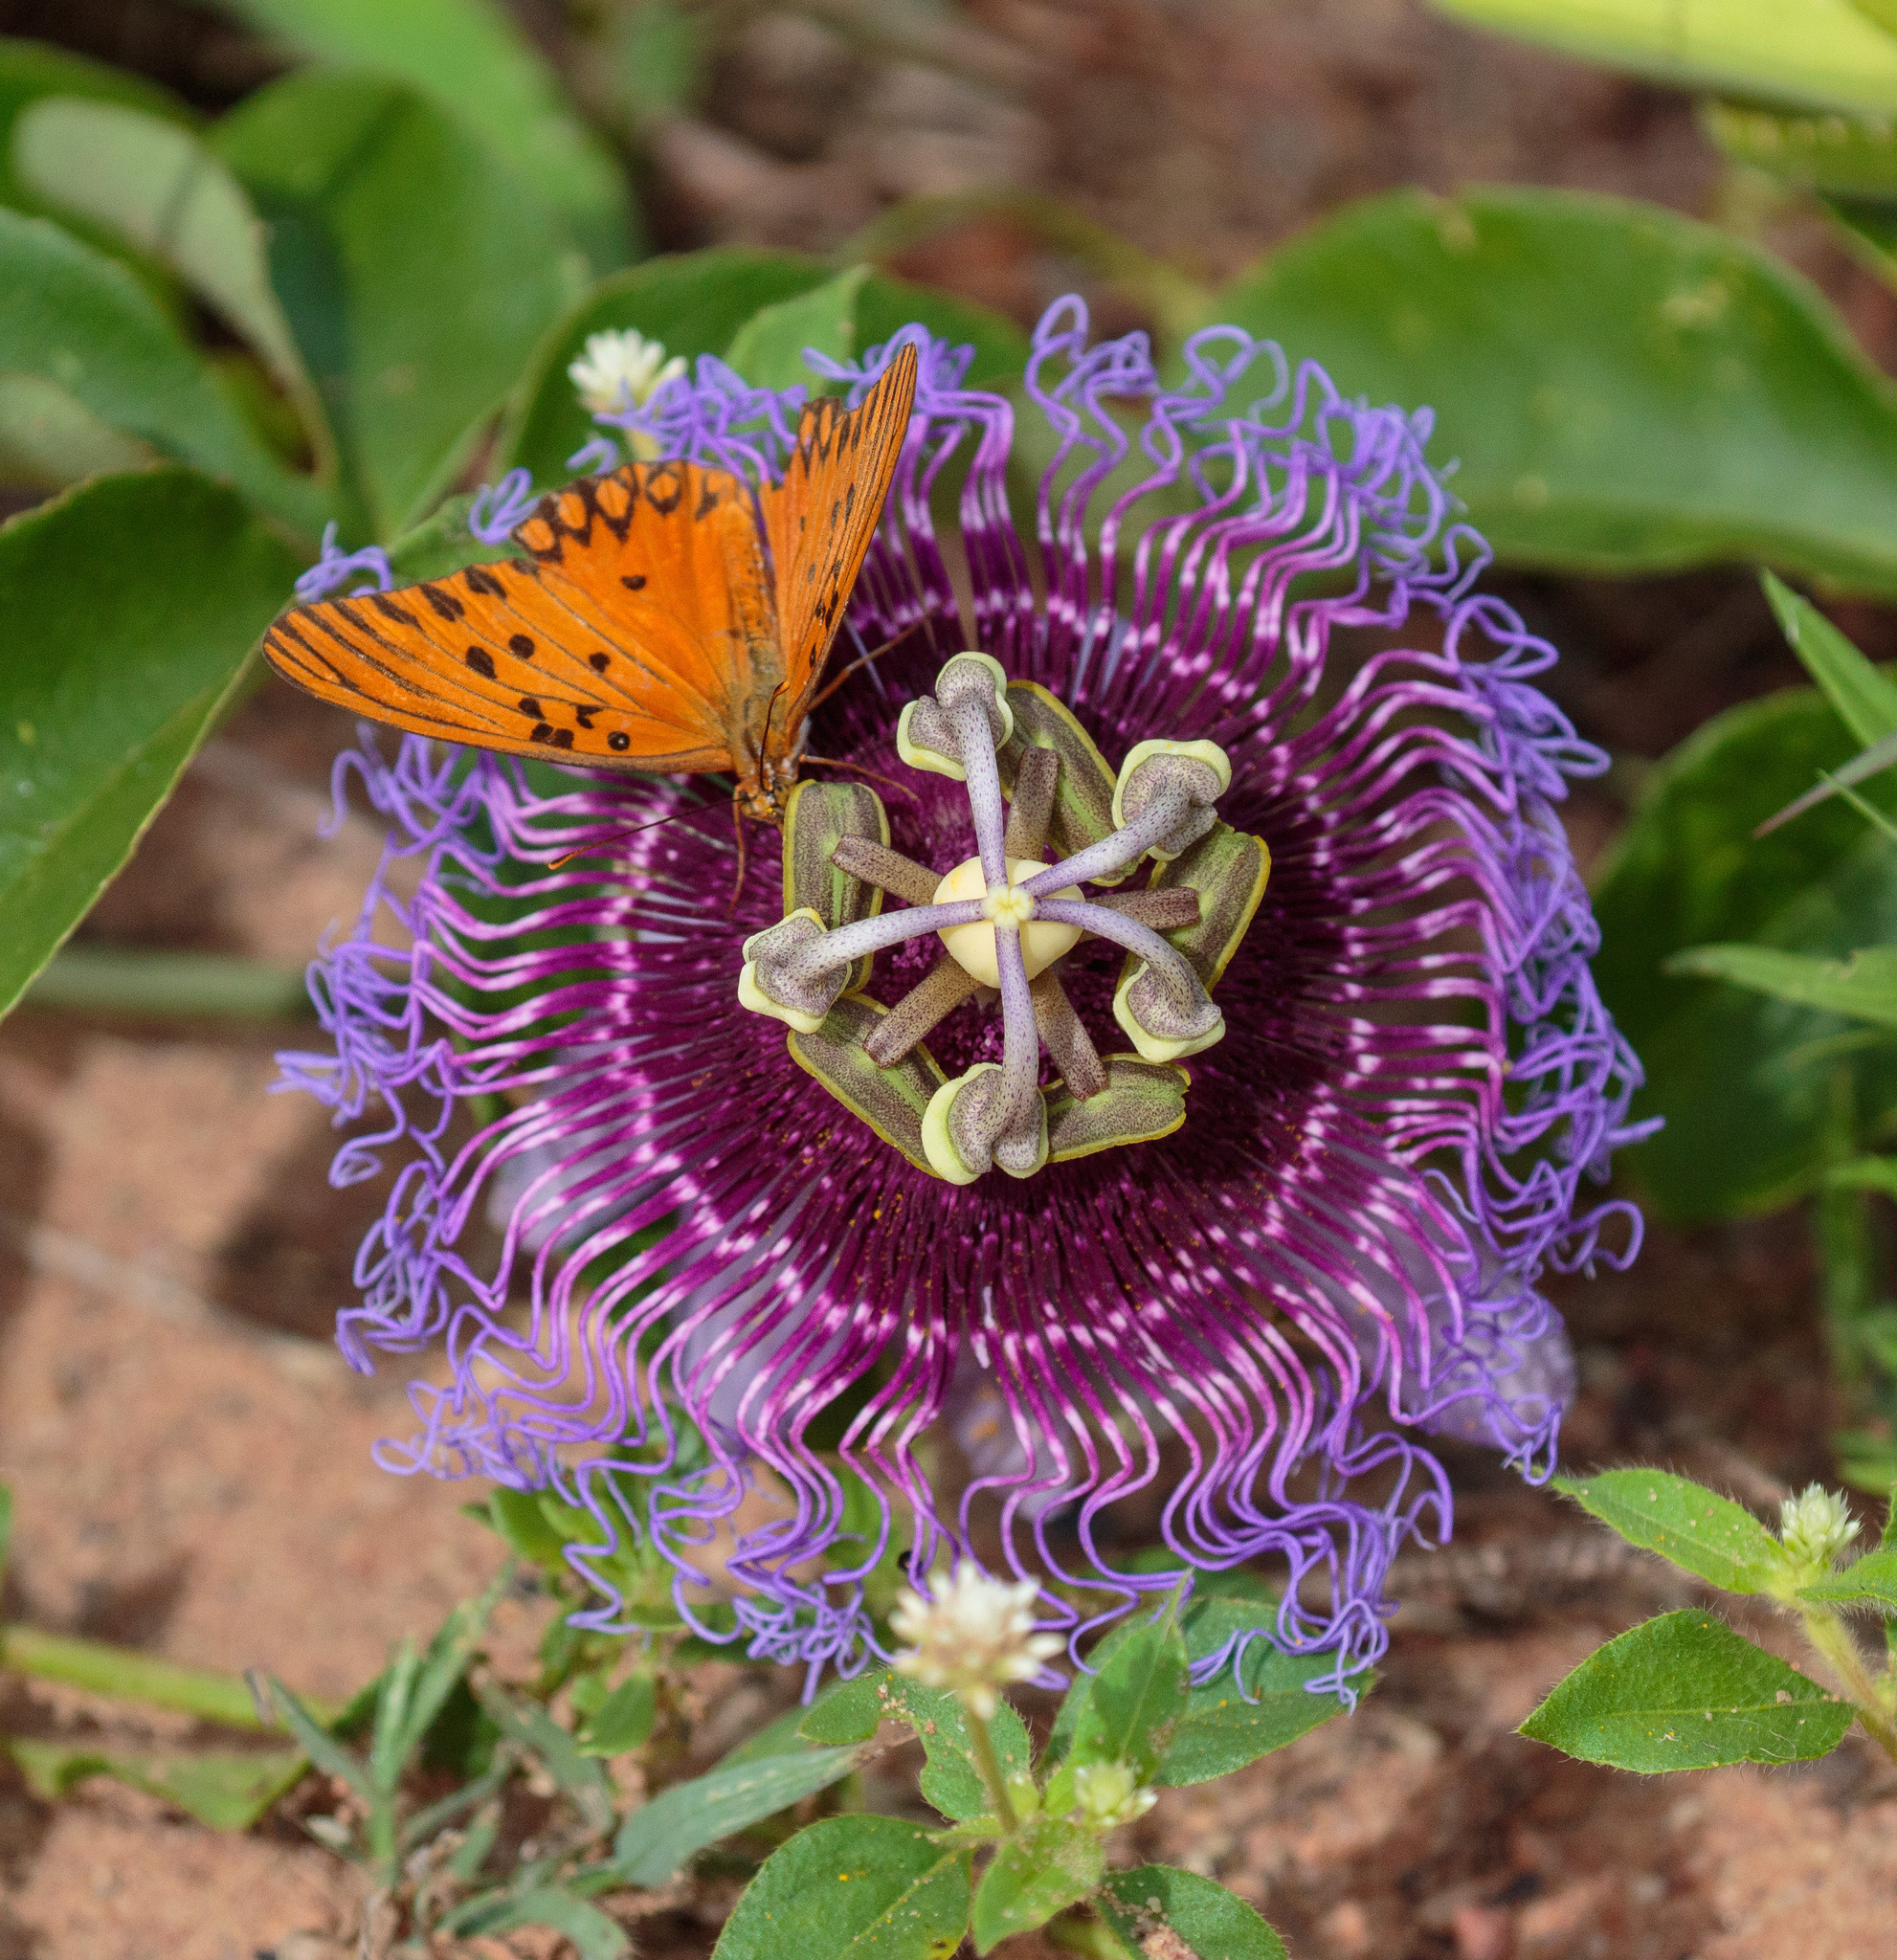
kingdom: Animalia
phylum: Arthropoda
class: Insecta
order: Lepidoptera
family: Nymphalidae
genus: Dione
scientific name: Dione vanillae
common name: Gulf fritillary
